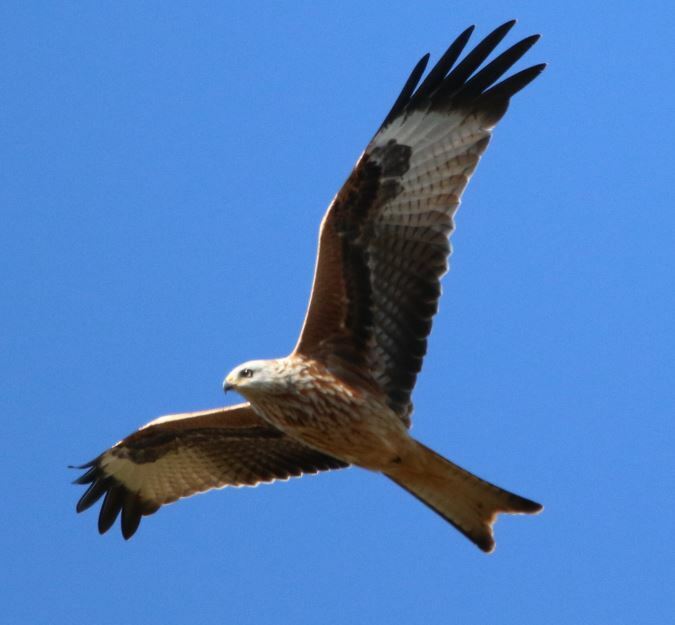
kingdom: Animalia
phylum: Chordata
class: Aves
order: Accipitriformes
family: Accipitridae
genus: Milvus
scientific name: Milvus milvus
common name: Red kite
